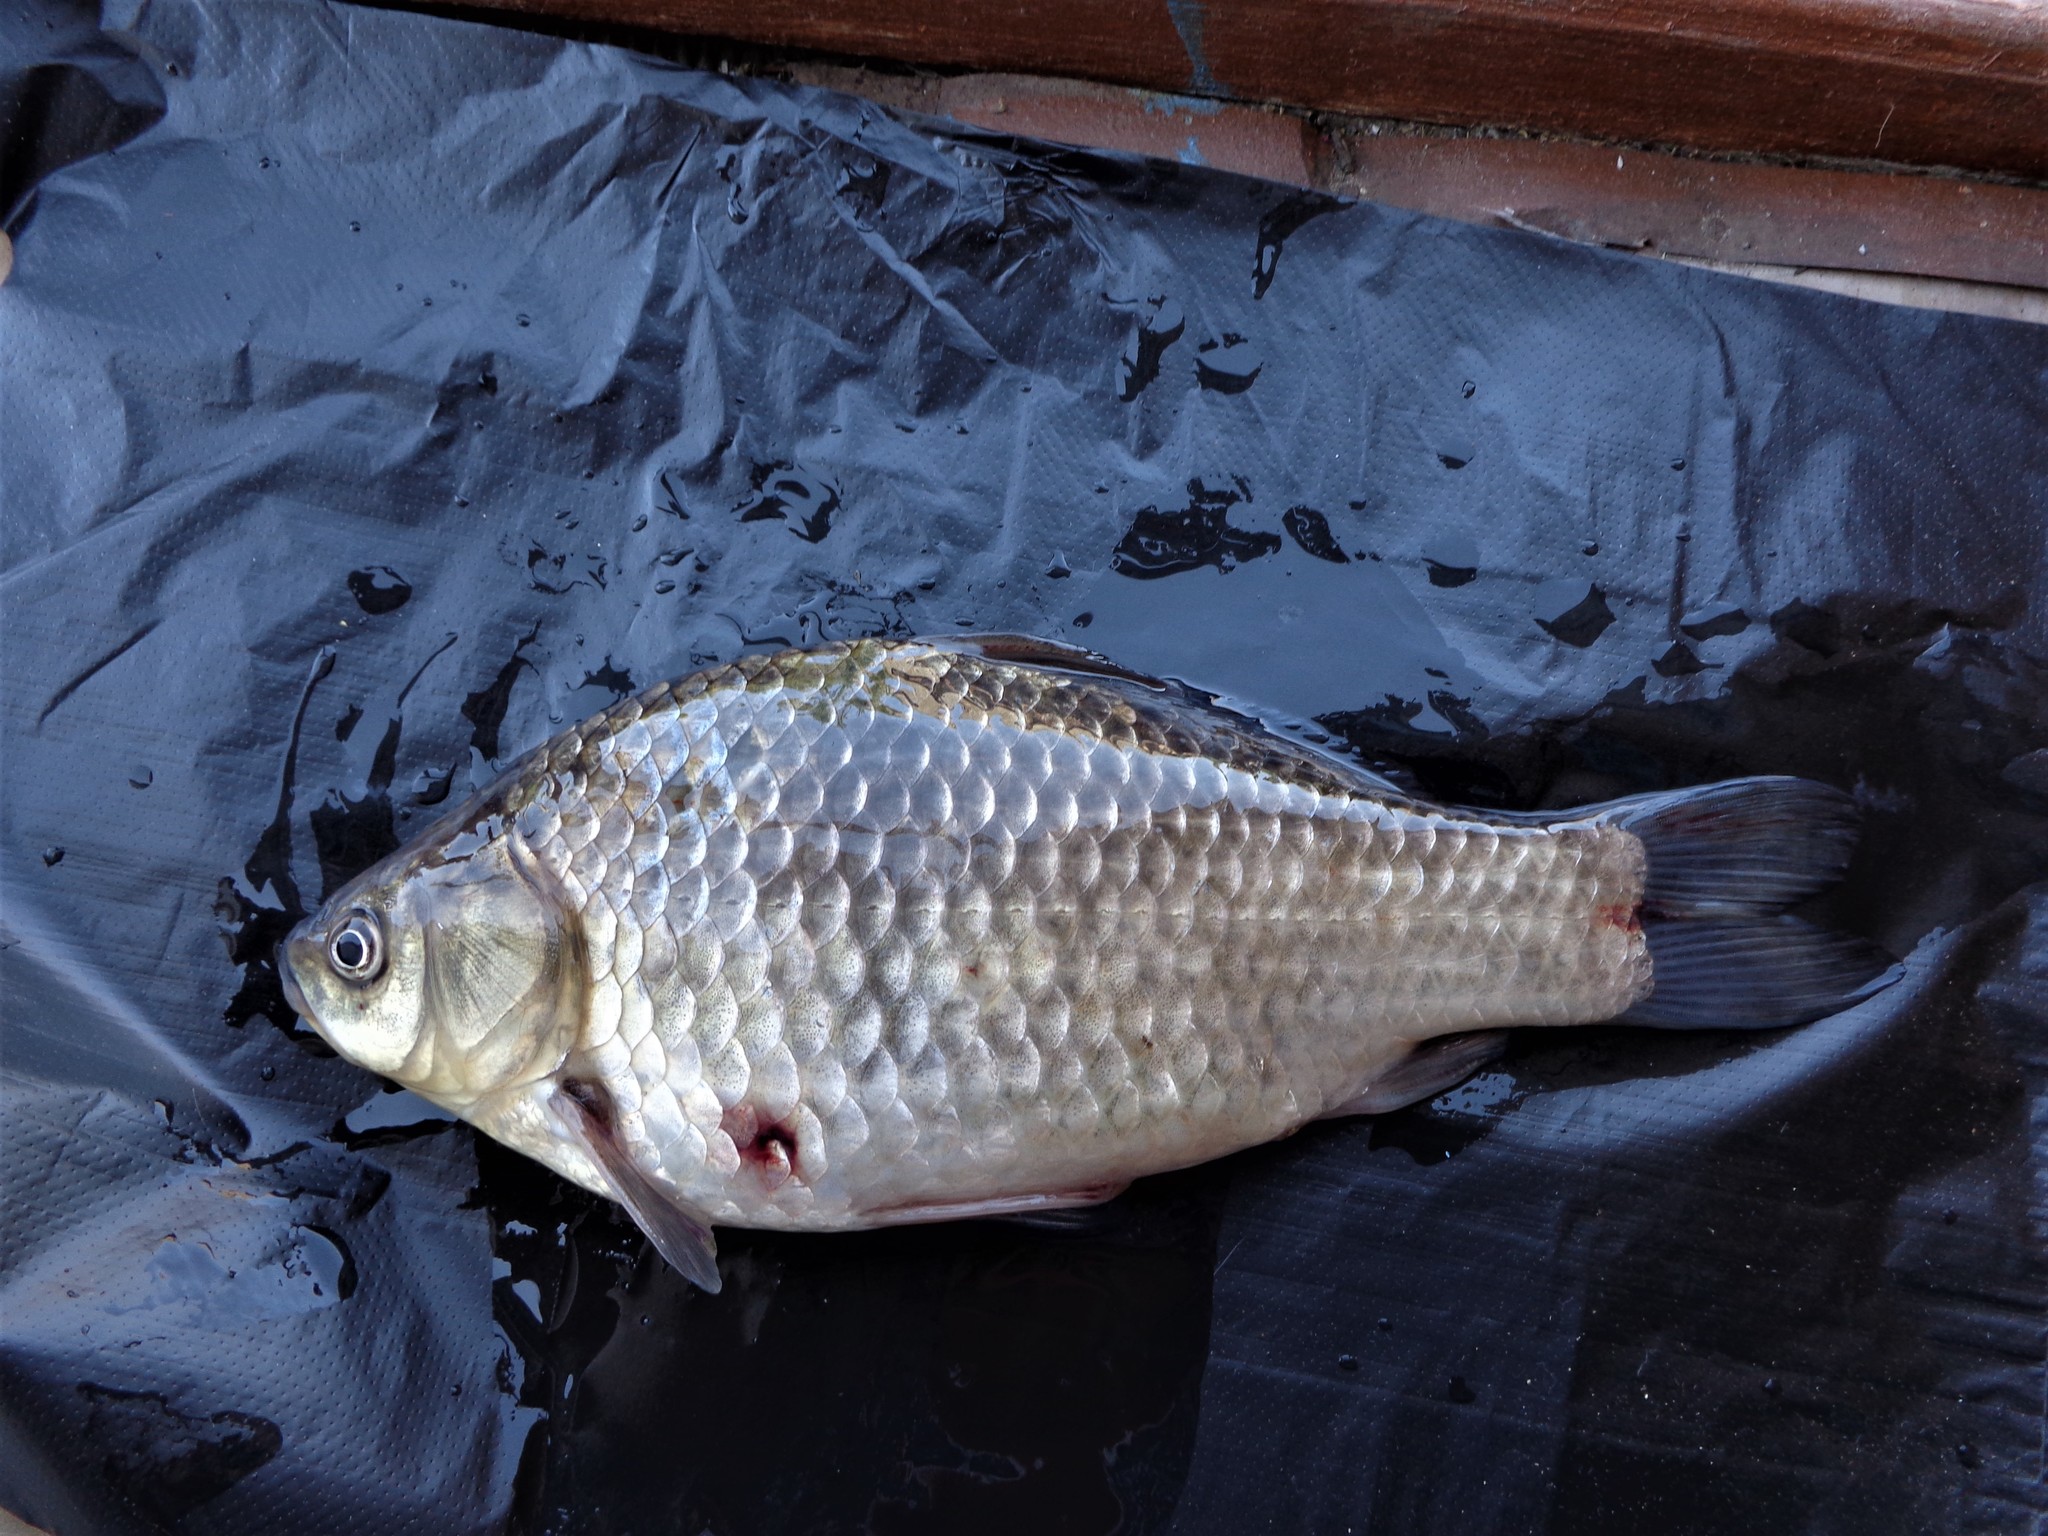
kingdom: Animalia
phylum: Chordata
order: Cypriniformes
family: Cyprinidae
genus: Carassius
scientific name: Carassius gibelio
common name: Prussian carp
